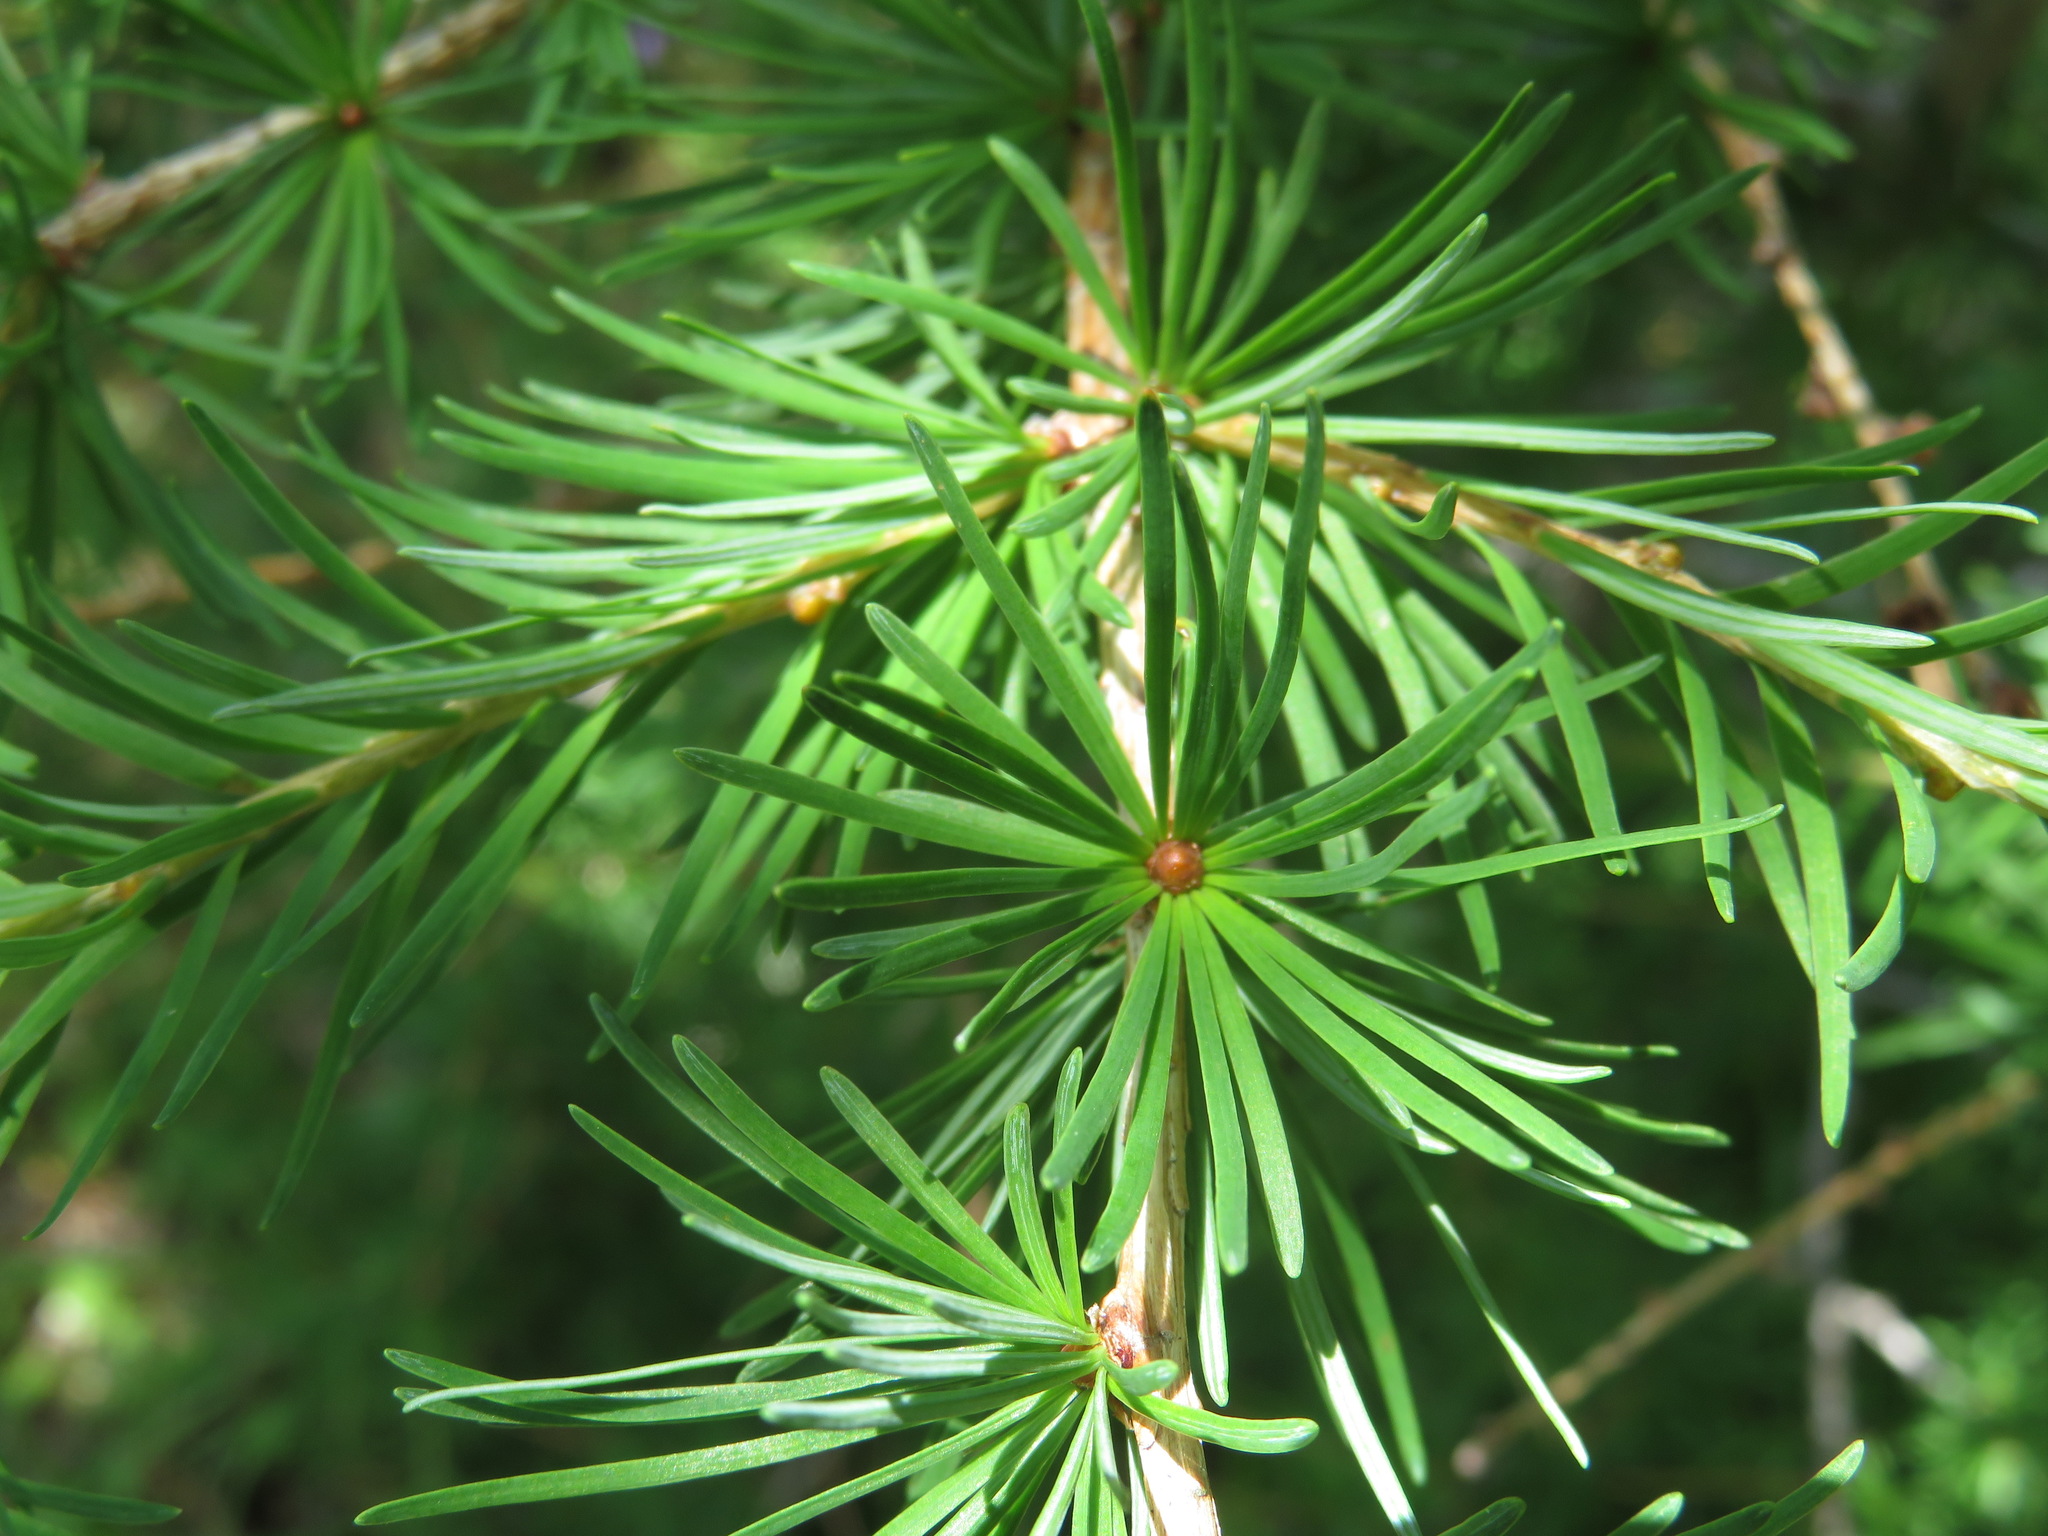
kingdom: Plantae
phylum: Tracheophyta
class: Pinopsida
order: Pinales
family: Pinaceae
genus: Larix
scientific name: Larix kaempferi
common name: Japanese larch
